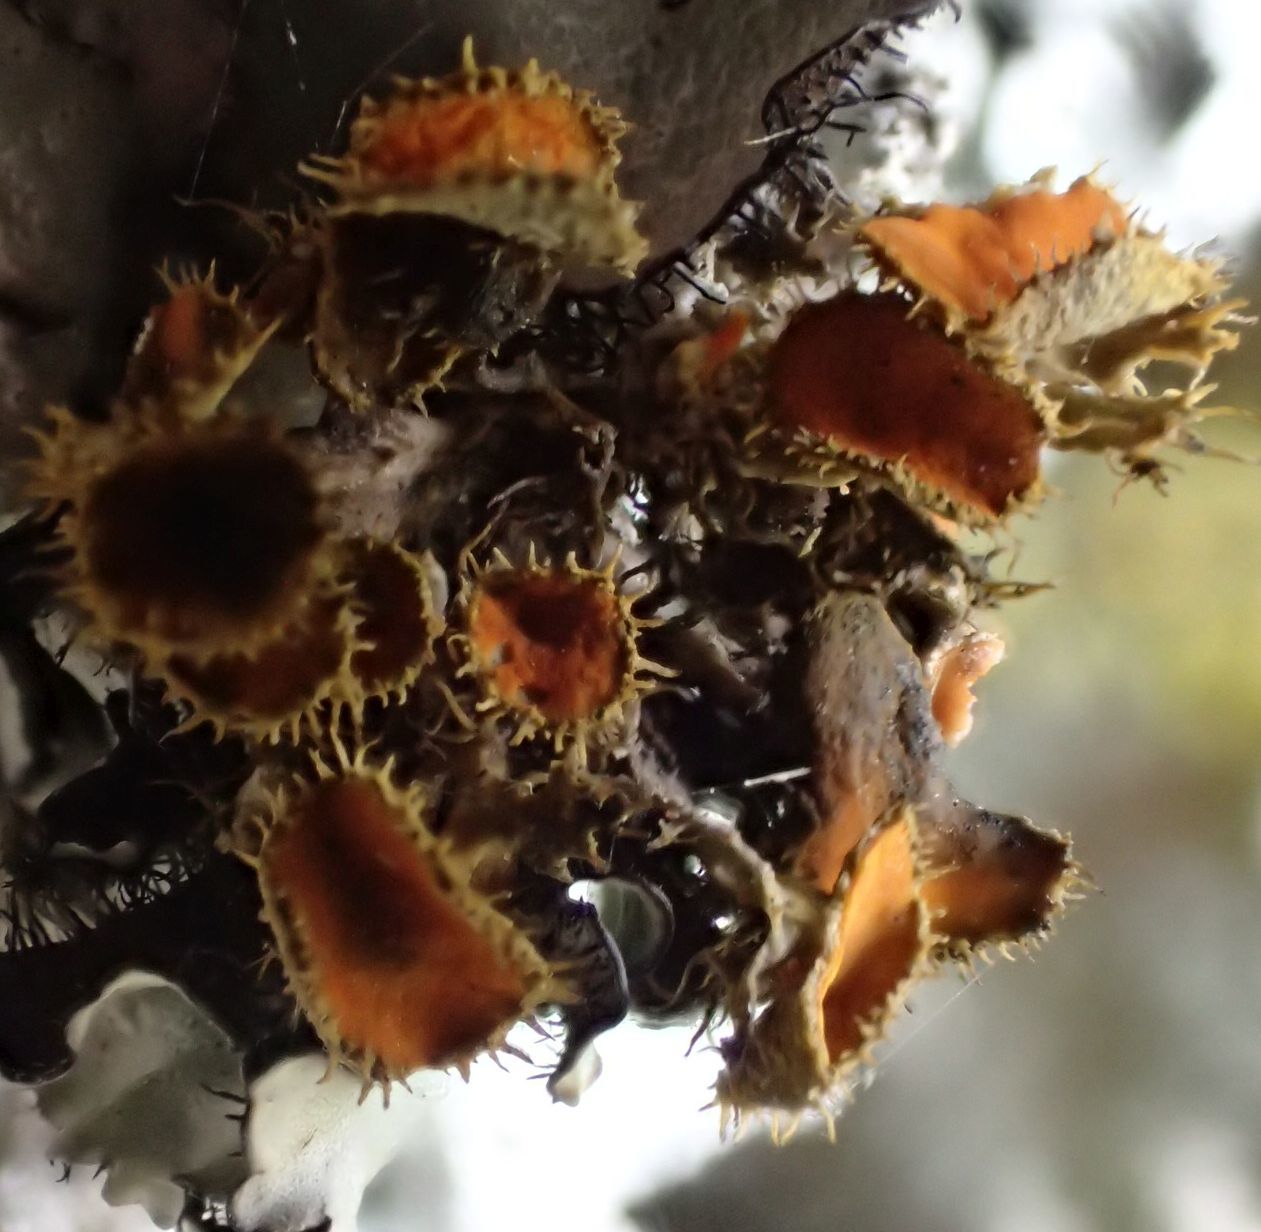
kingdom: Fungi
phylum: Ascomycota
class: Lecanoromycetes
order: Teloschistales
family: Teloschistaceae
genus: Niorma
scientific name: Niorma chrysophthalma
